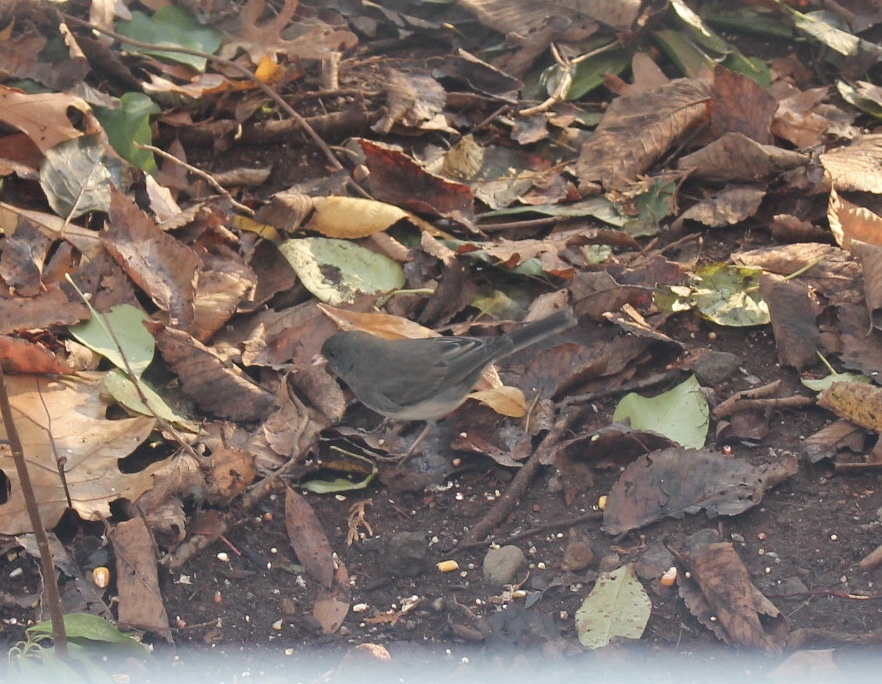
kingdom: Animalia
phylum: Chordata
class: Aves
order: Passeriformes
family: Passerellidae
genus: Junco
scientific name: Junco hyemalis
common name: Dark-eyed junco
